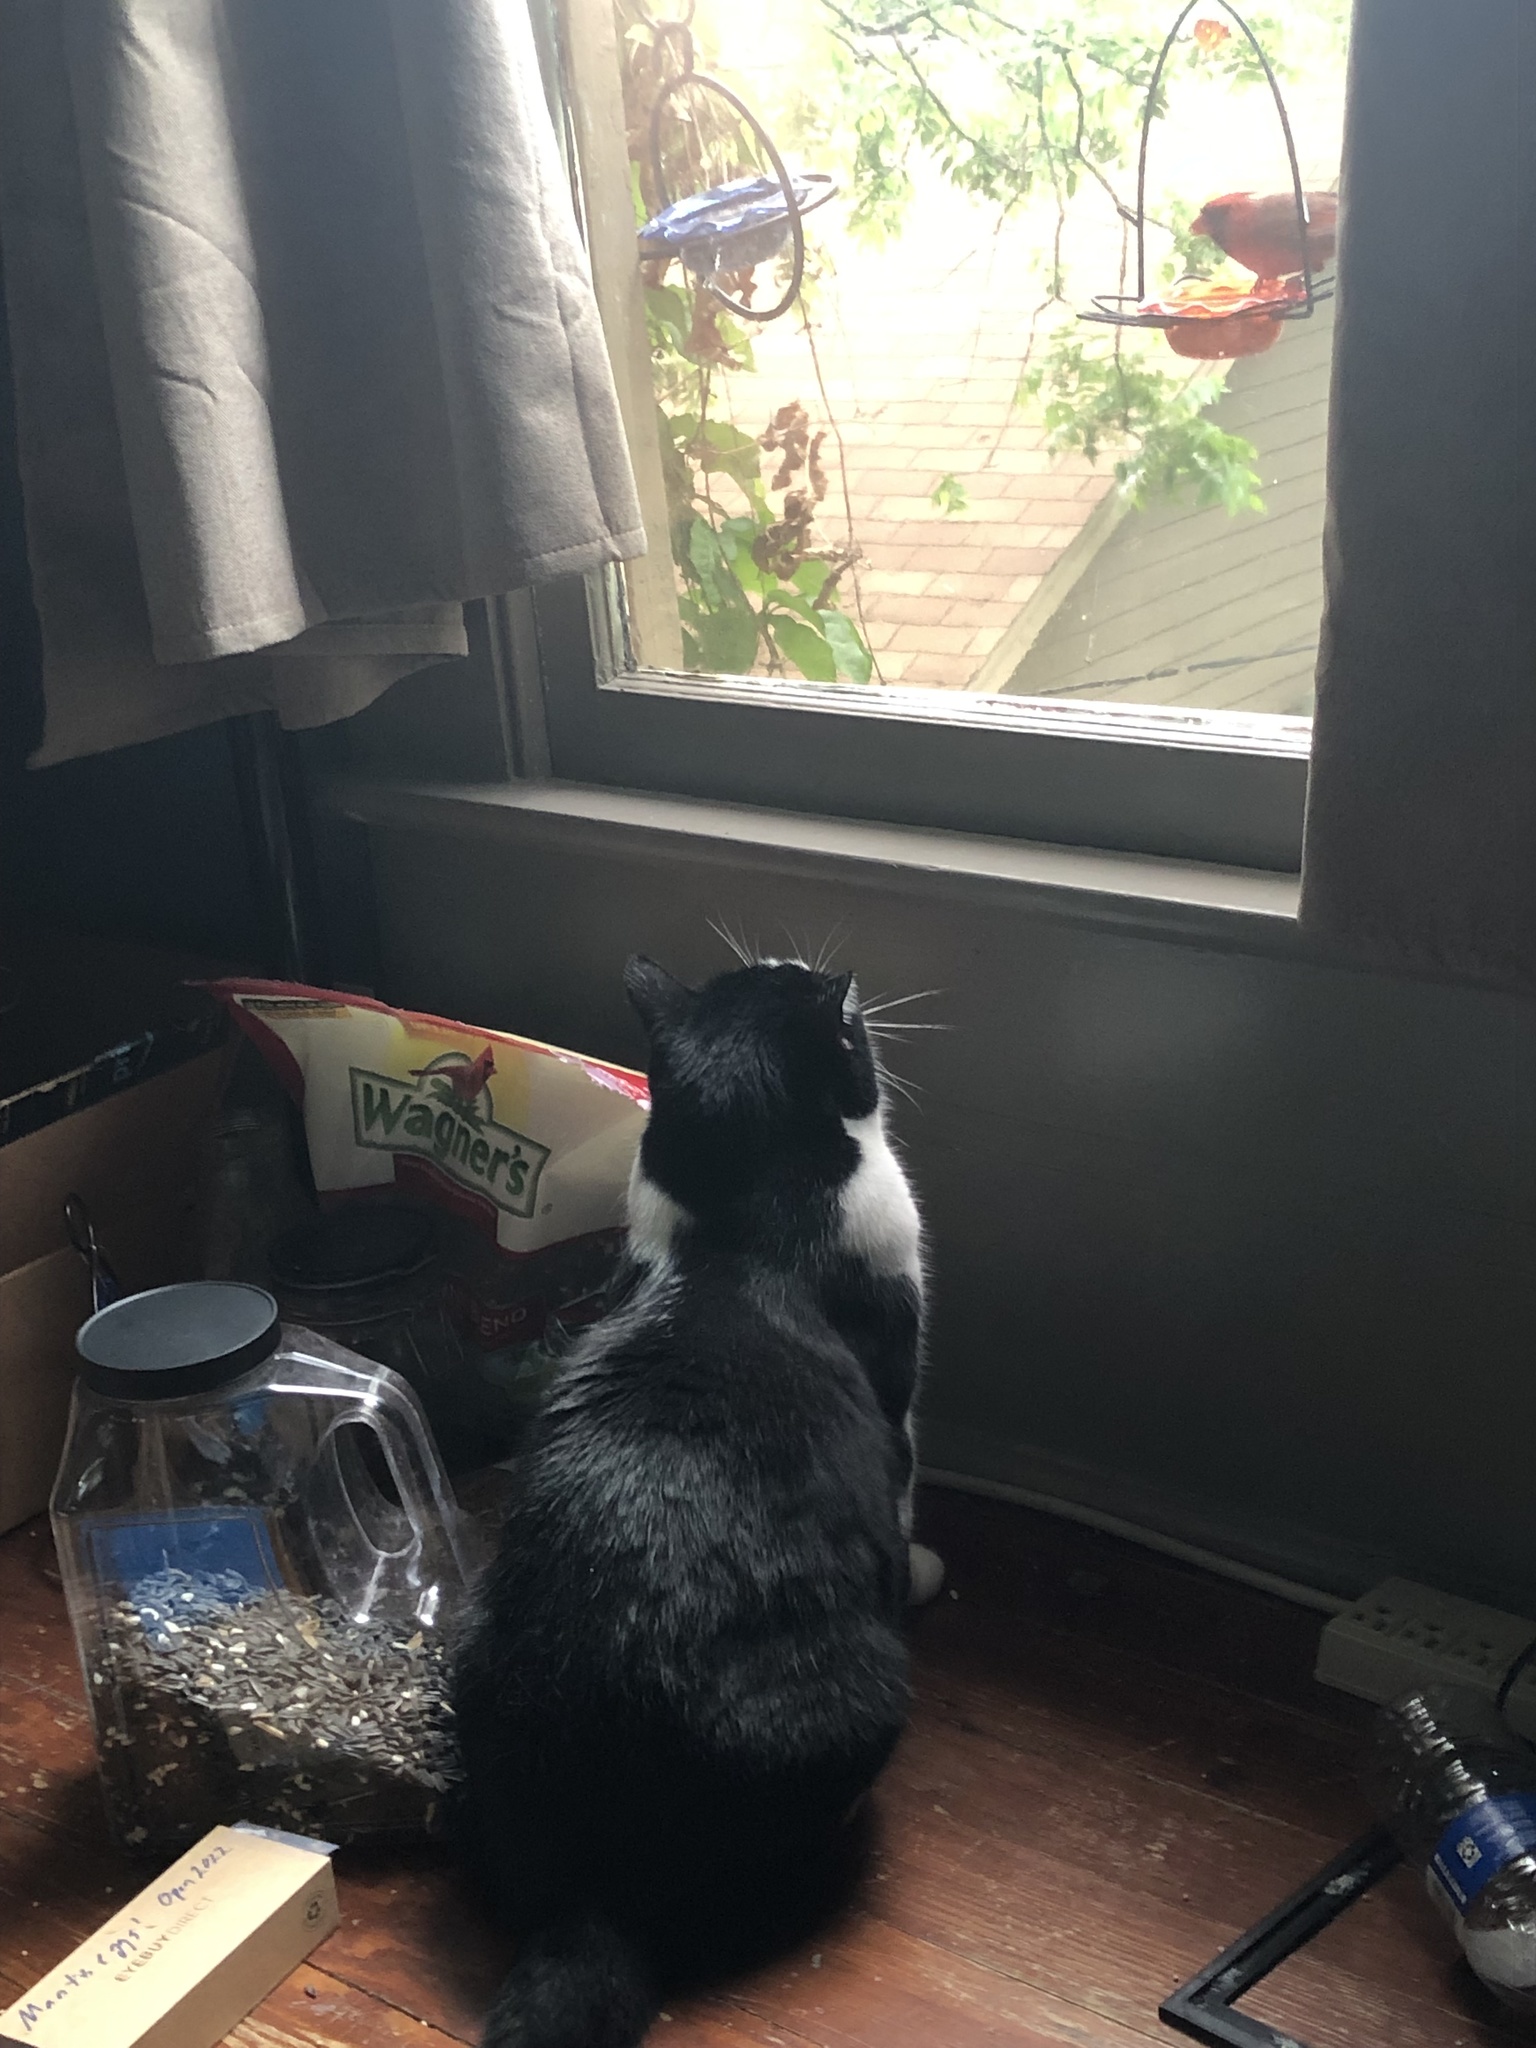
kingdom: Animalia
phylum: Chordata
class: Aves
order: Passeriformes
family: Cardinalidae
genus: Cardinalis
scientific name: Cardinalis cardinalis
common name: Northern cardinal
